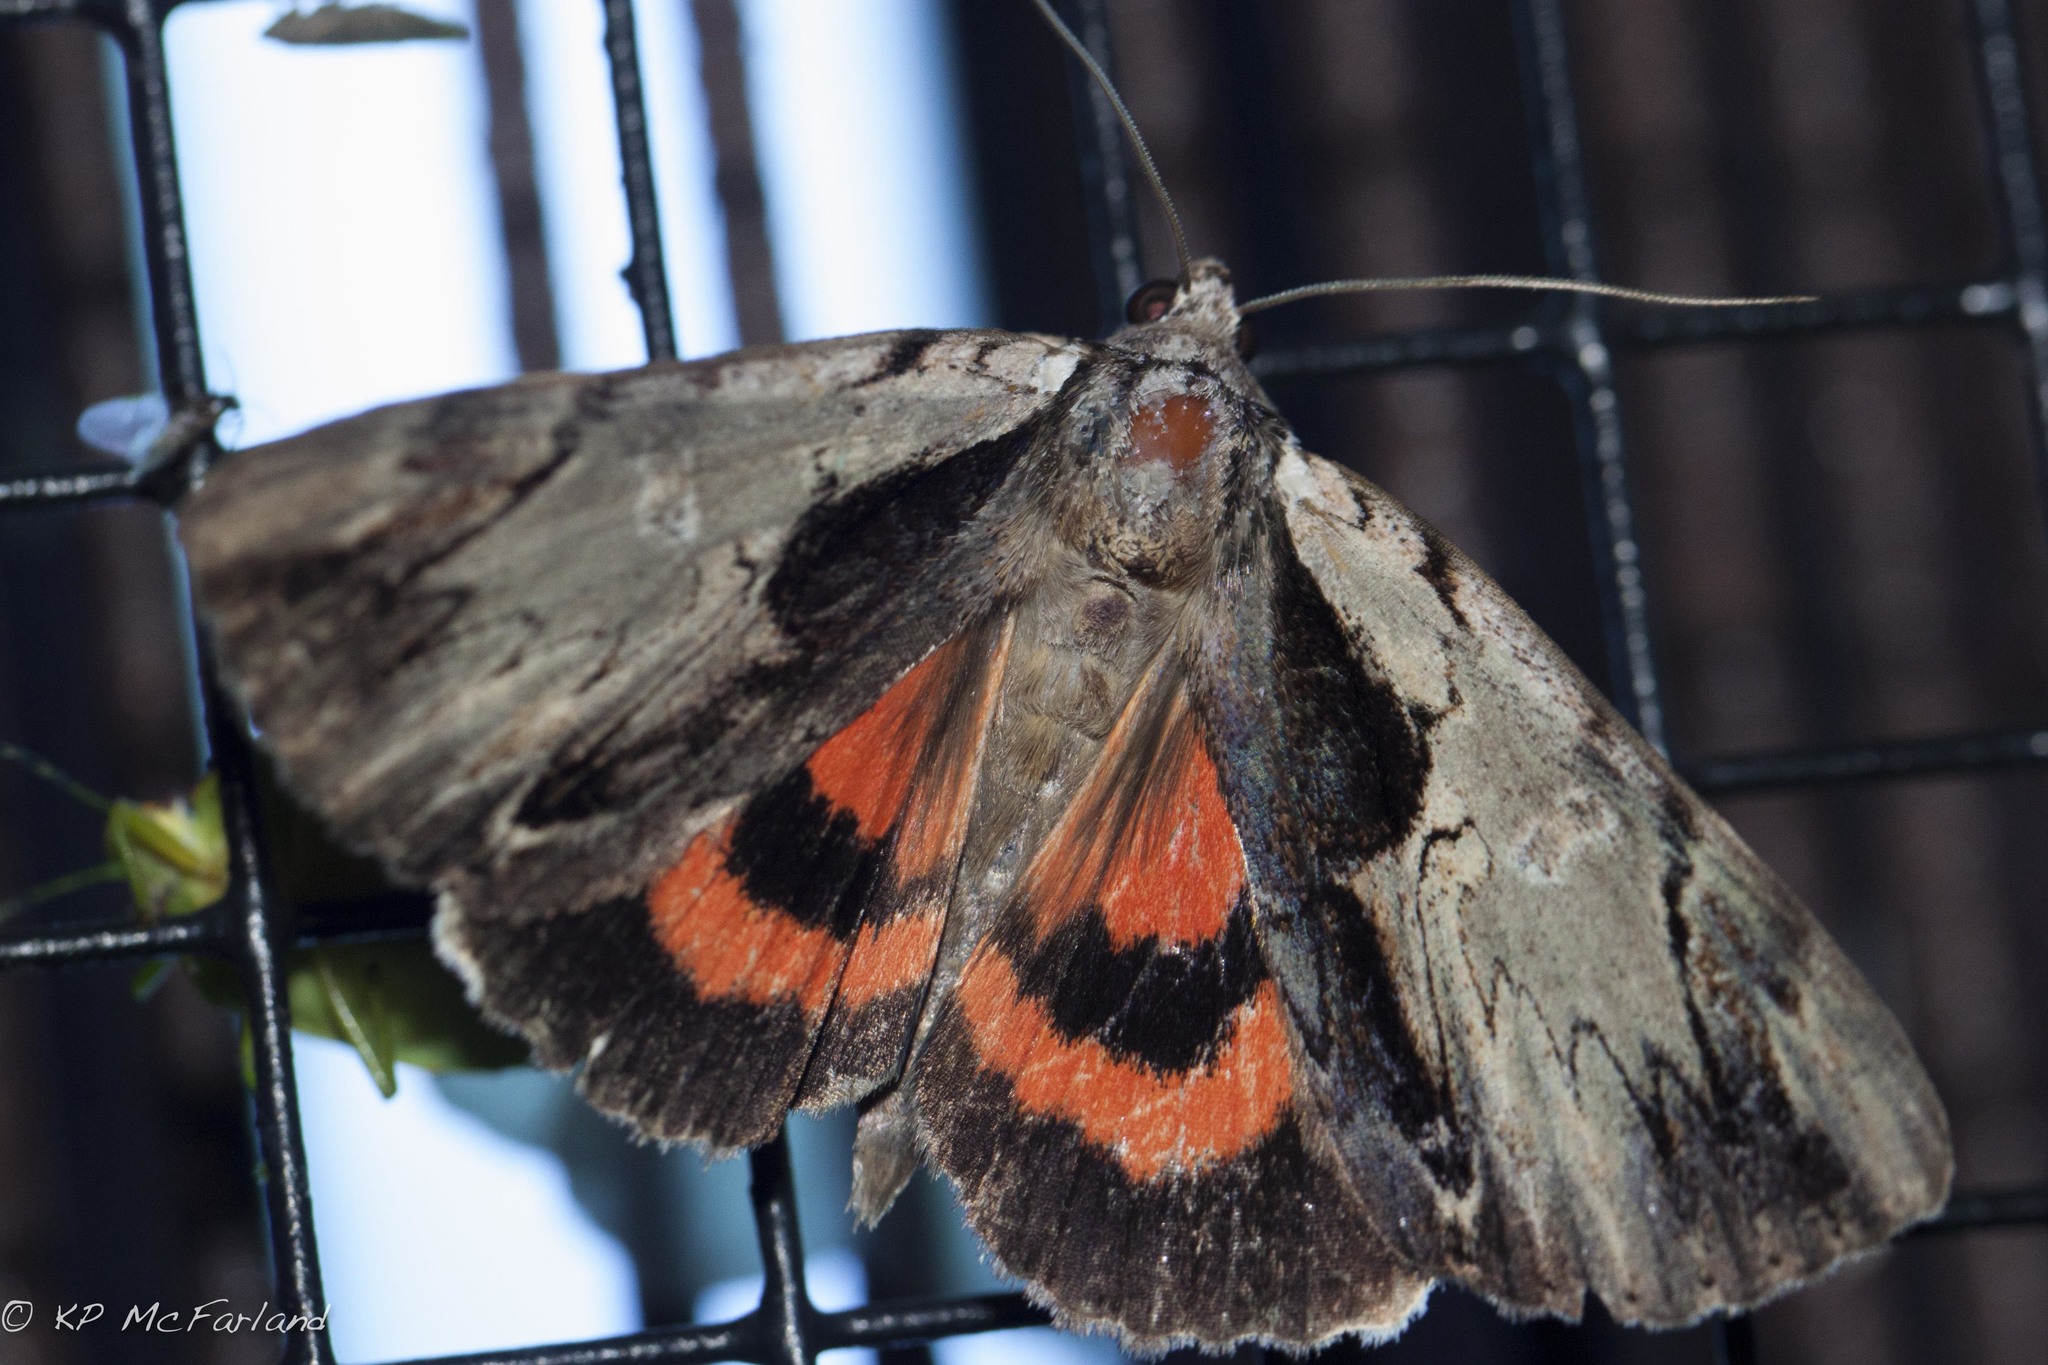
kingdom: Animalia
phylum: Arthropoda
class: Insecta
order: Lepidoptera
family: Erebidae
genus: Catocala
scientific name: Catocala ultronia
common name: Ultronia underwing
